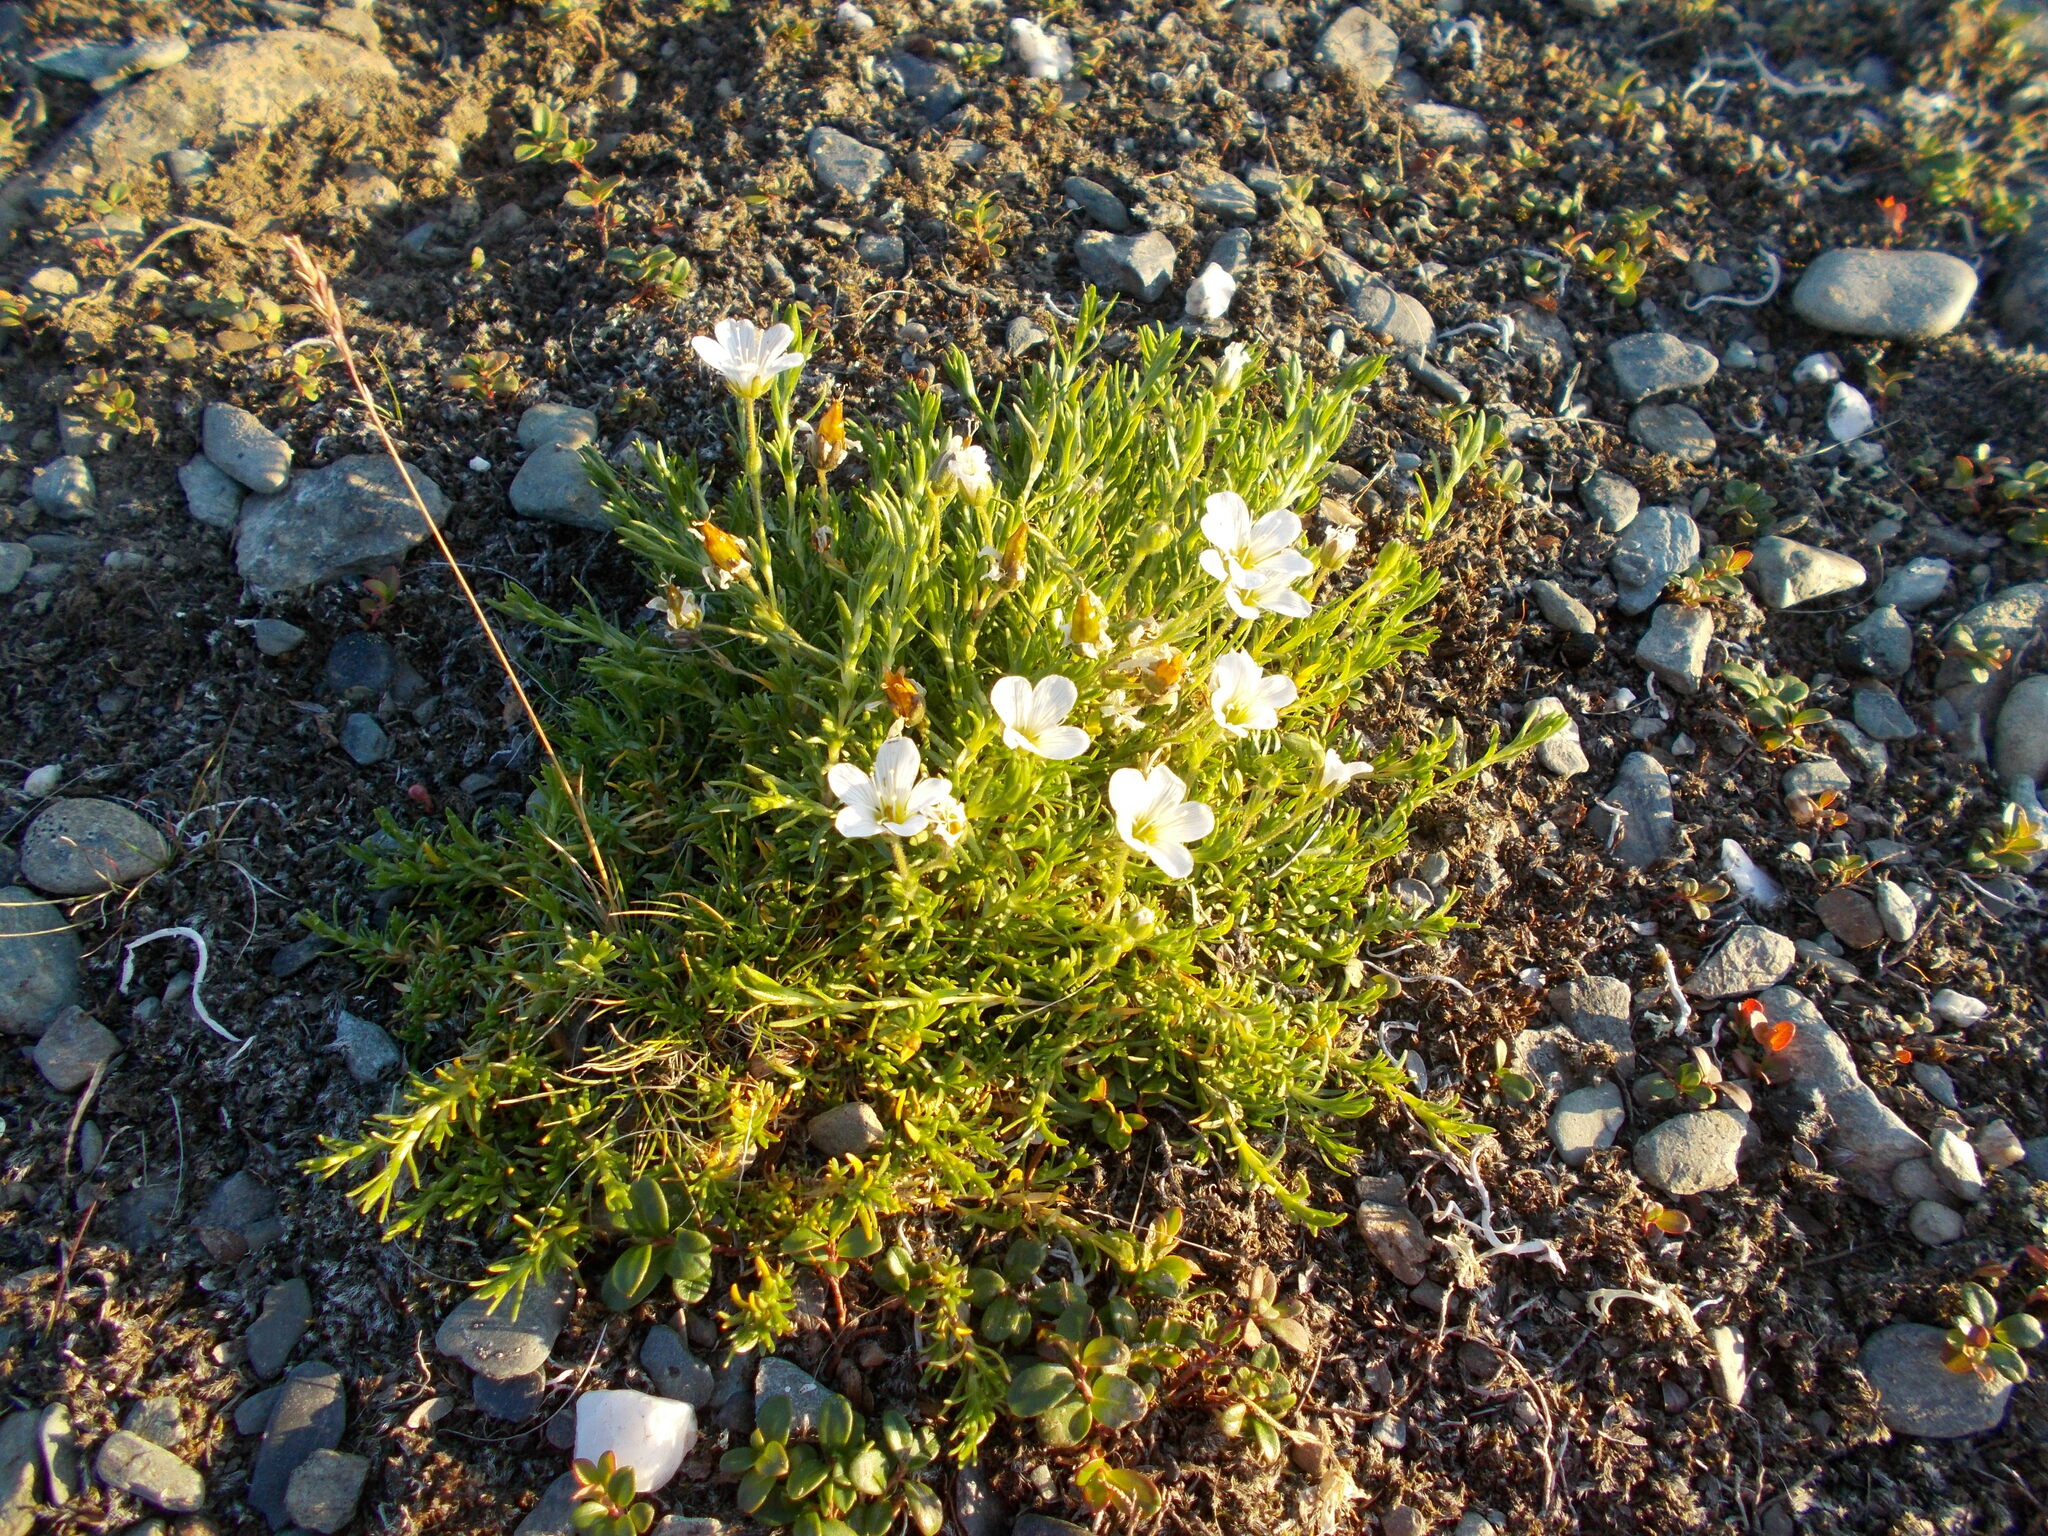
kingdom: Plantae
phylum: Tracheophyta
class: Magnoliopsida
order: Caryophyllales
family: Caryophyllaceae
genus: Cherleria
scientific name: Cherleria arctica
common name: Arctic sandwort
